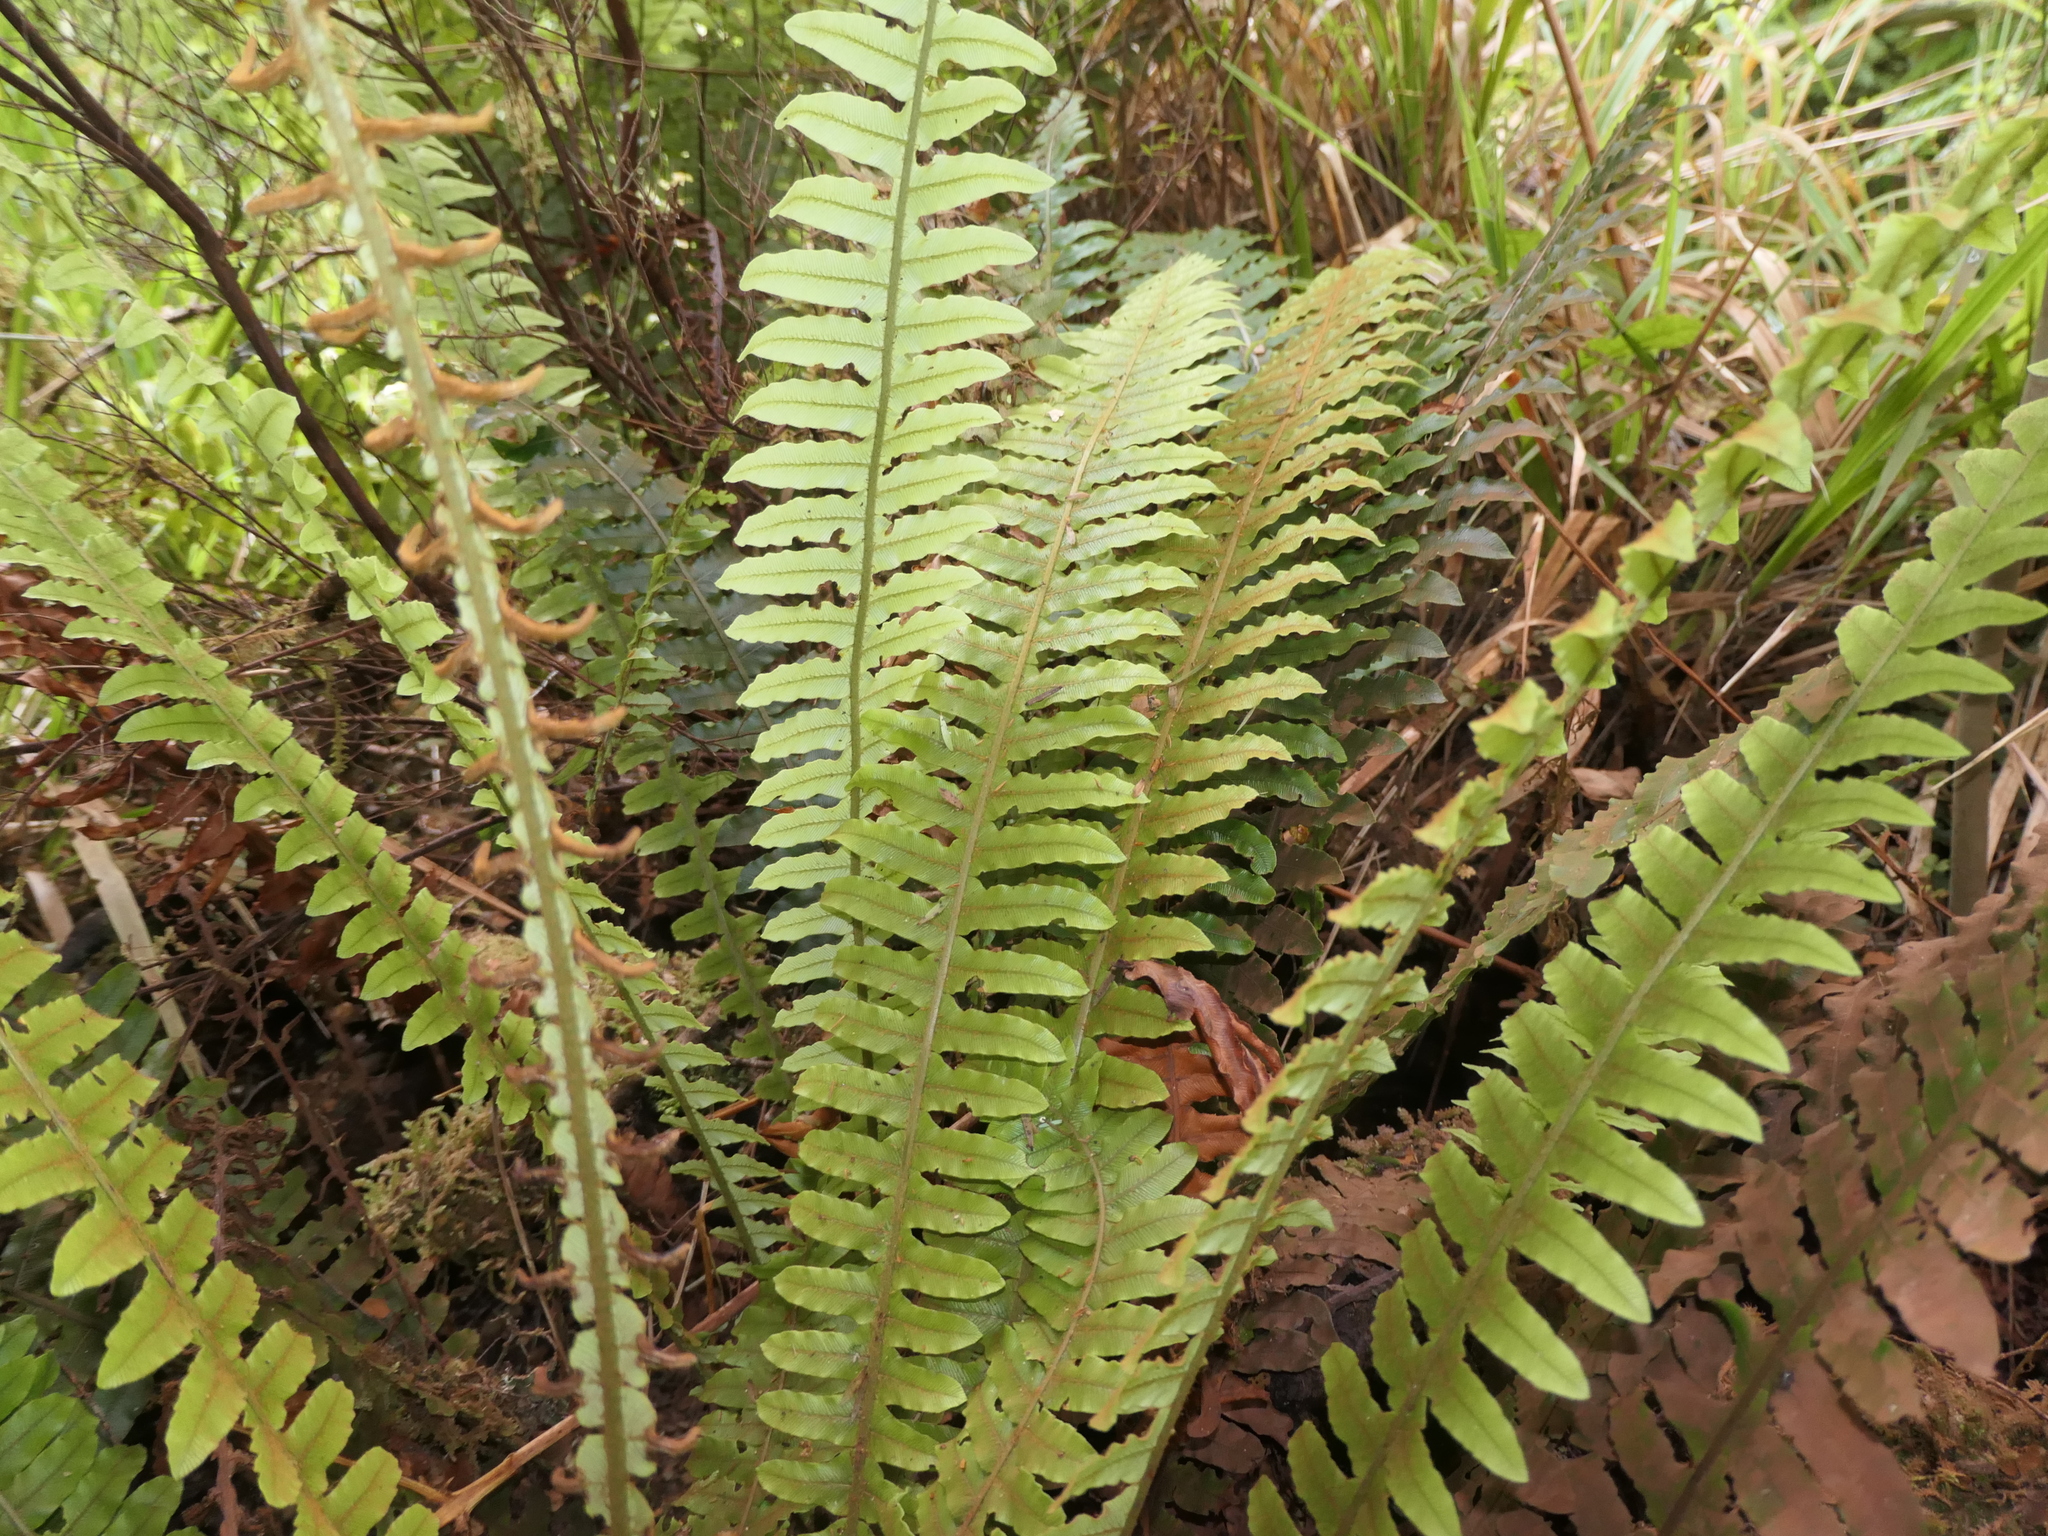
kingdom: Plantae
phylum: Tracheophyta
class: Polypodiopsida
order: Polypodiales
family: Blechnaceae
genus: Lomaria
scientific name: Lomaria discolor
